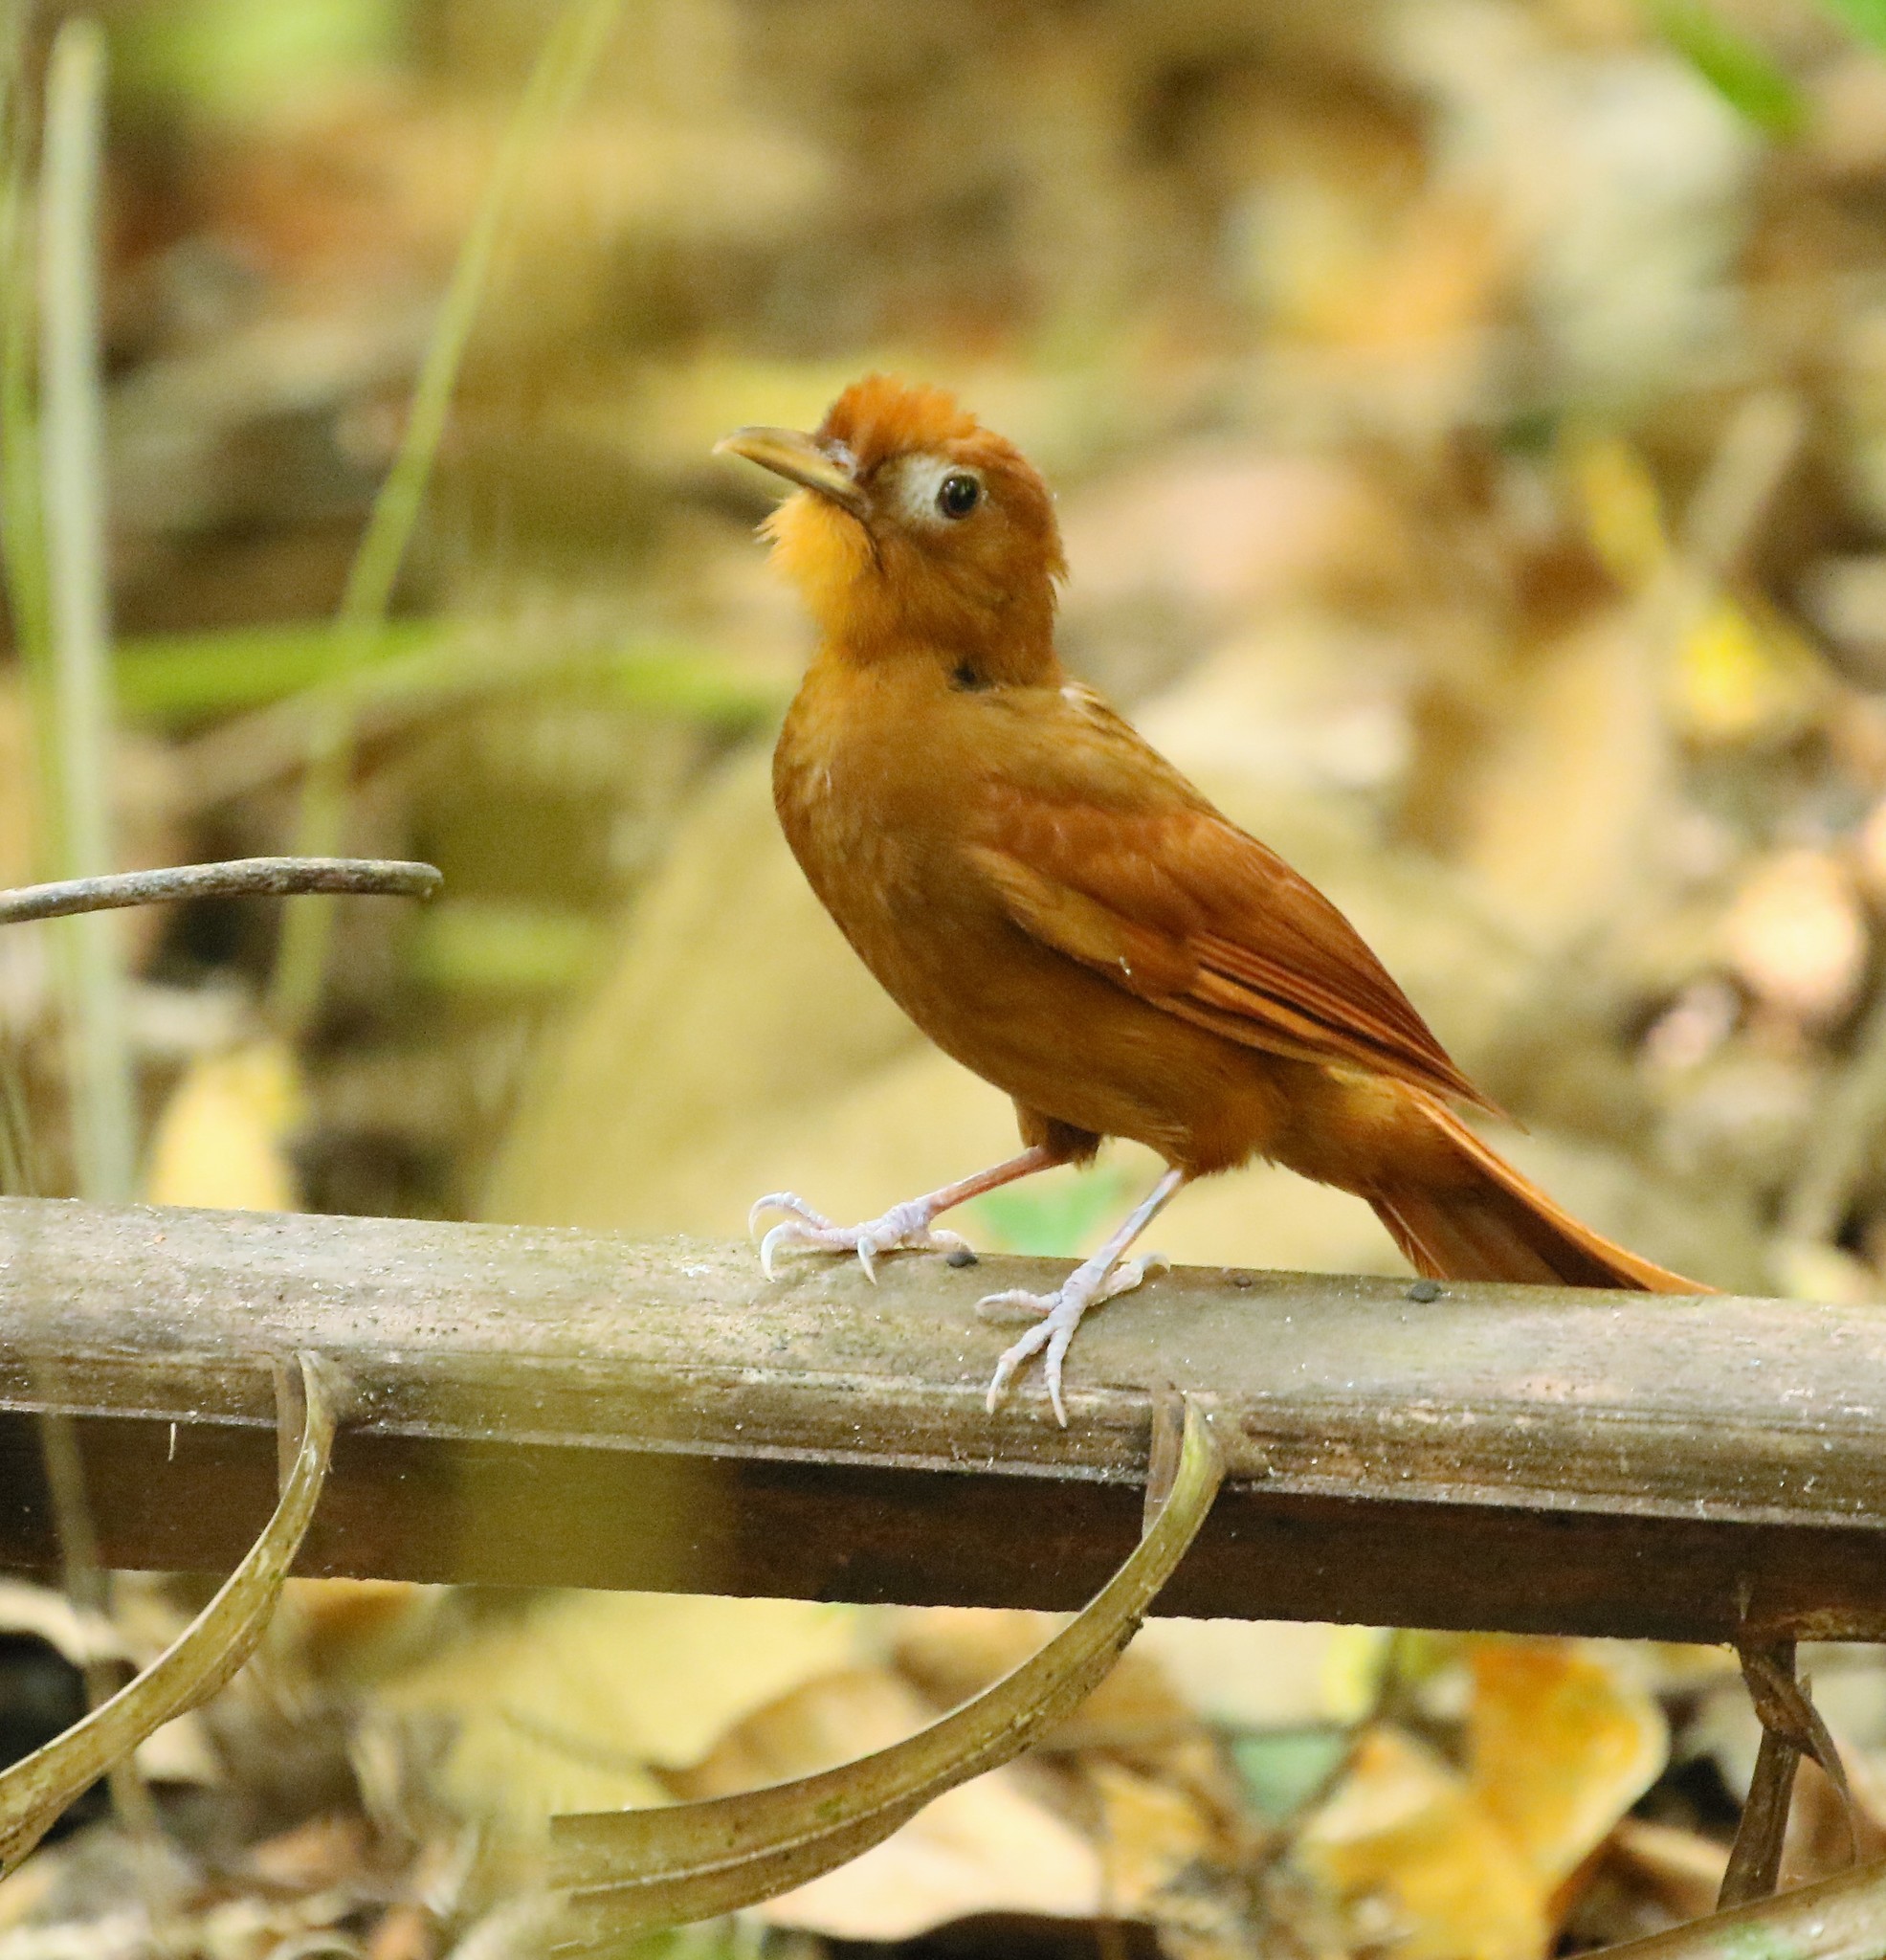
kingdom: Animalia
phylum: Chordata
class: Aves
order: Passeriformes
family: Furnariidae
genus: Dendrocincla
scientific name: Dendrocincla homochroa
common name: Ruddy woodcreeper
